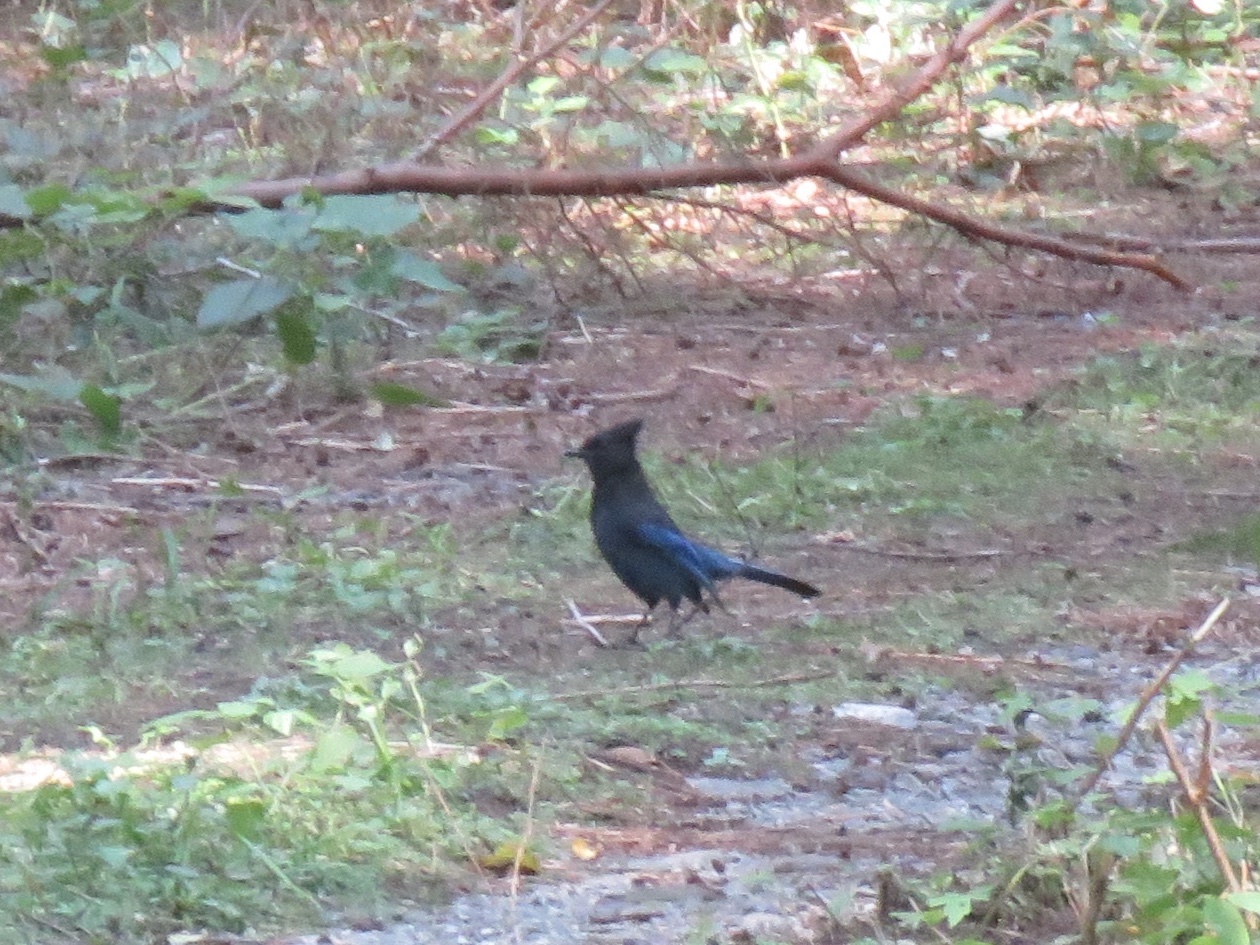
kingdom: Animalia
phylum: Chordata
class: Aves
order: Passeriformes
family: Corvidae
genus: Cyanocitta
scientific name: Cyanocitta stelleri
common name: Steller's jay
